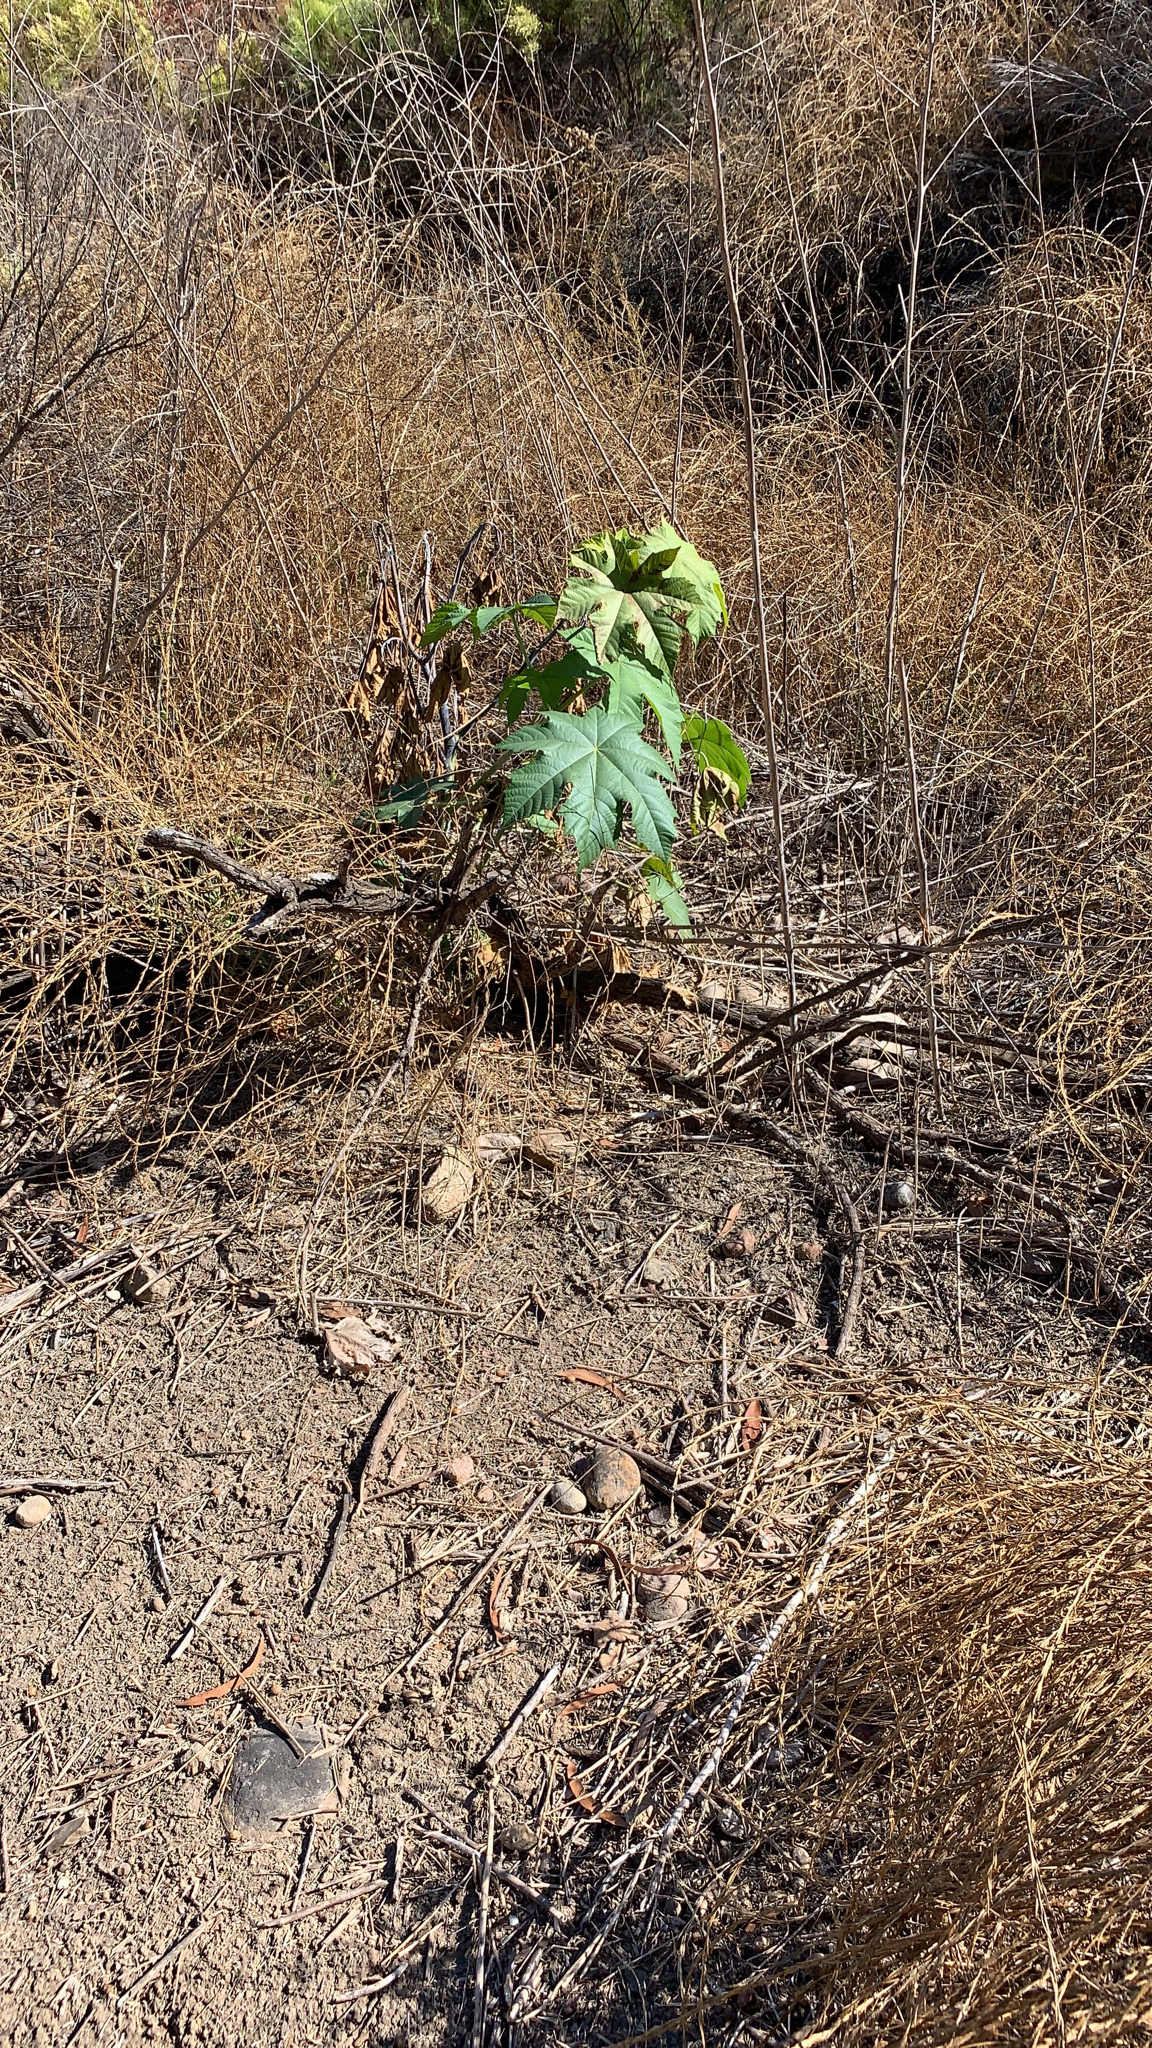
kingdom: Plantae
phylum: Tracheophyta
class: Magnoliopsida
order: Malpighiales
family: Euphorbiaceae
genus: Ricinus
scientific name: Ricinus communis
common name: Castor-oil-plant
